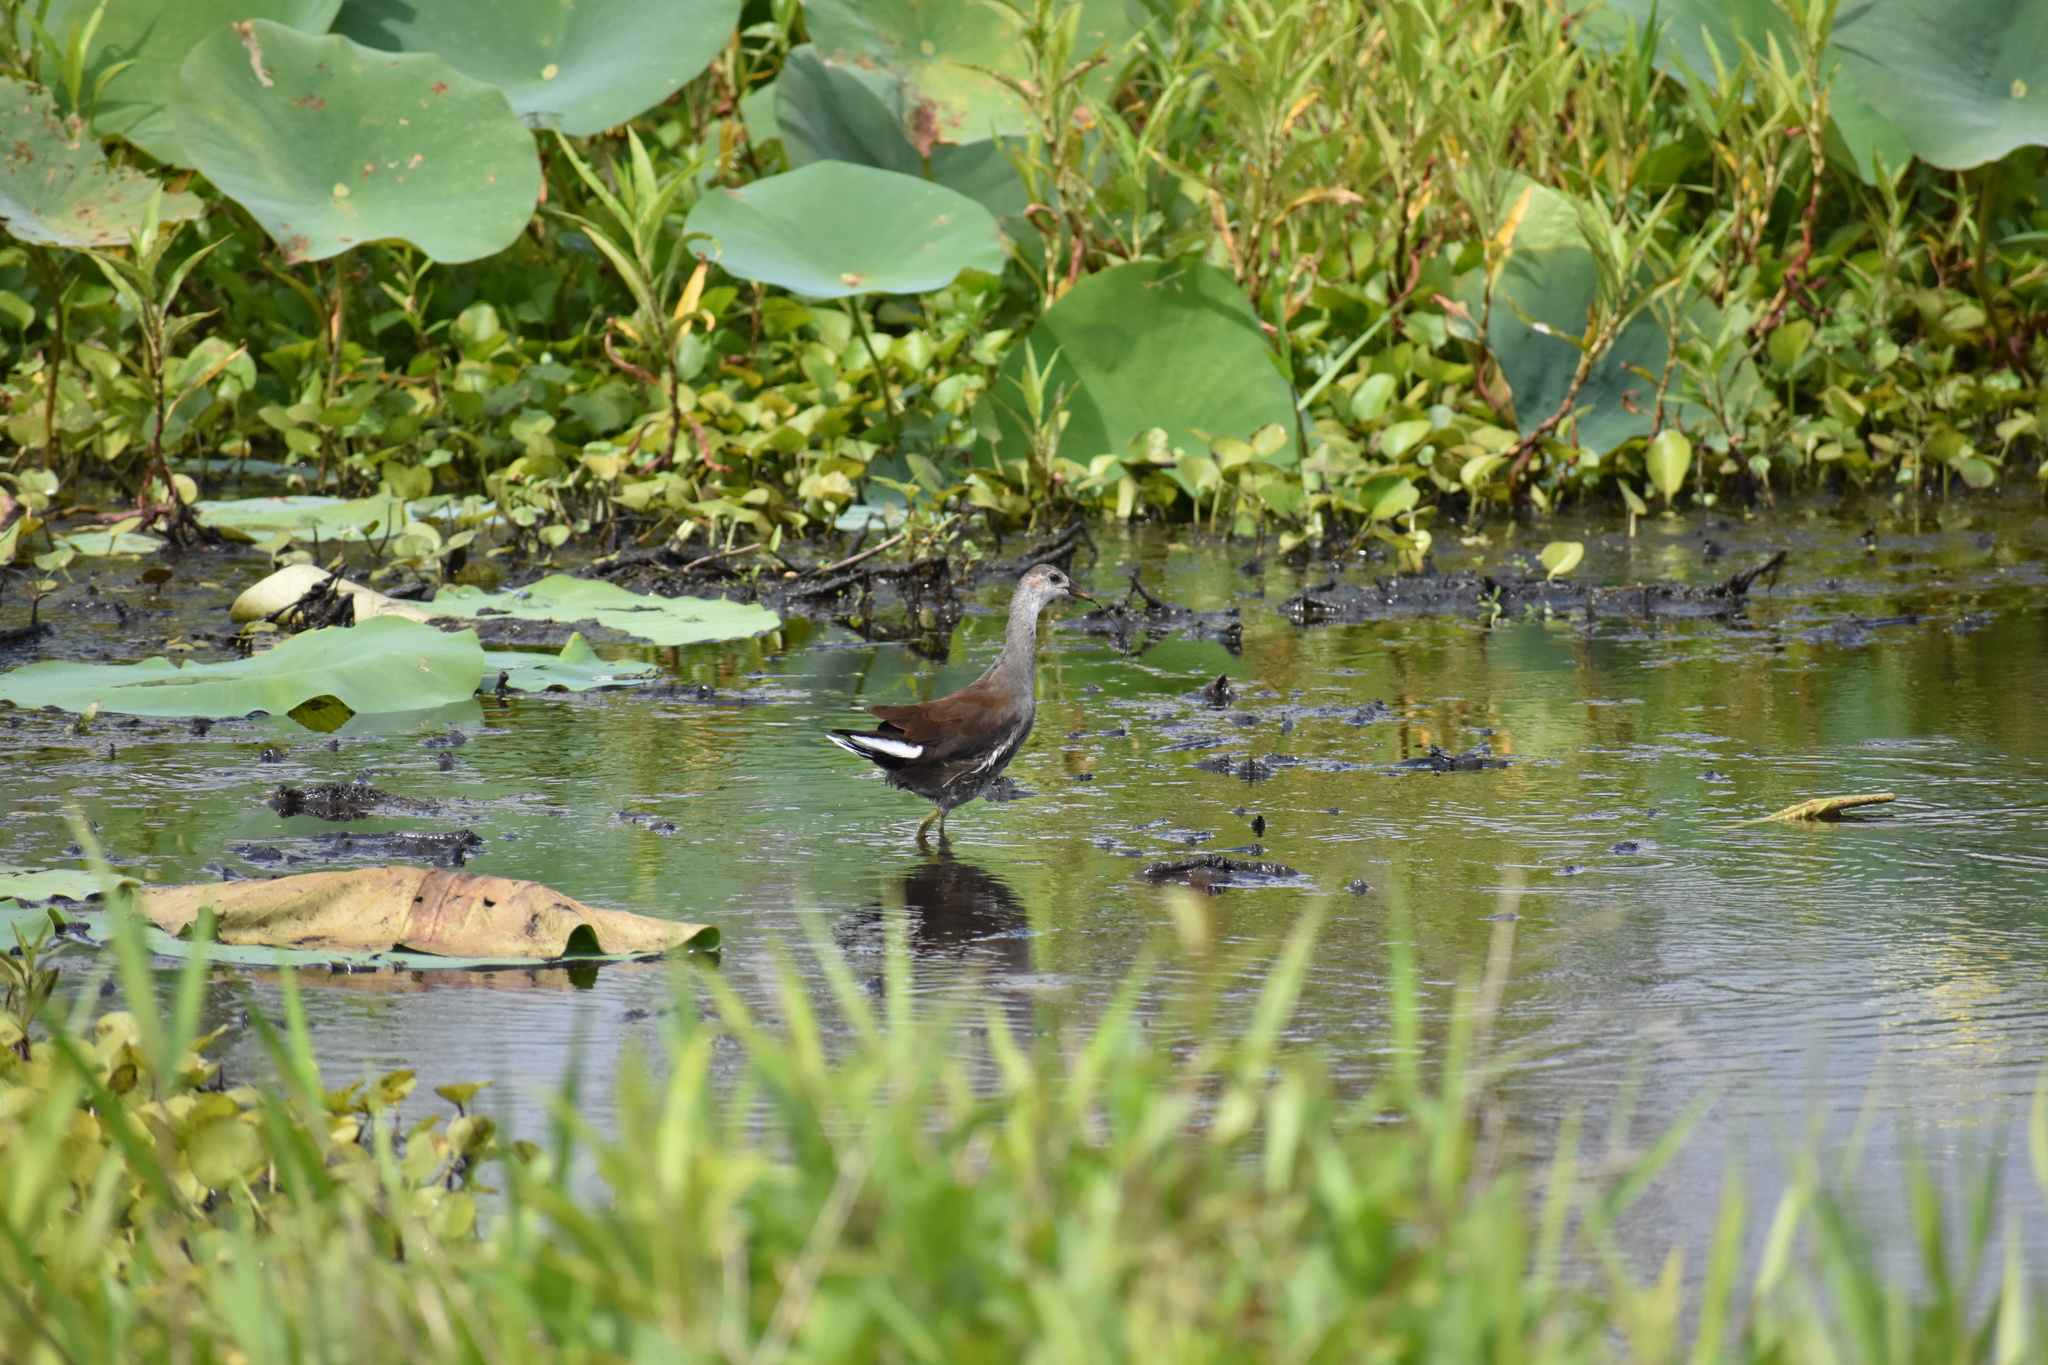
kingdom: Animalia
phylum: Chordata
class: Aves
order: Gruiformes
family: Rallidae
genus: Gallinula
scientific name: Gallinula chloropus
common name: Common moorhen
